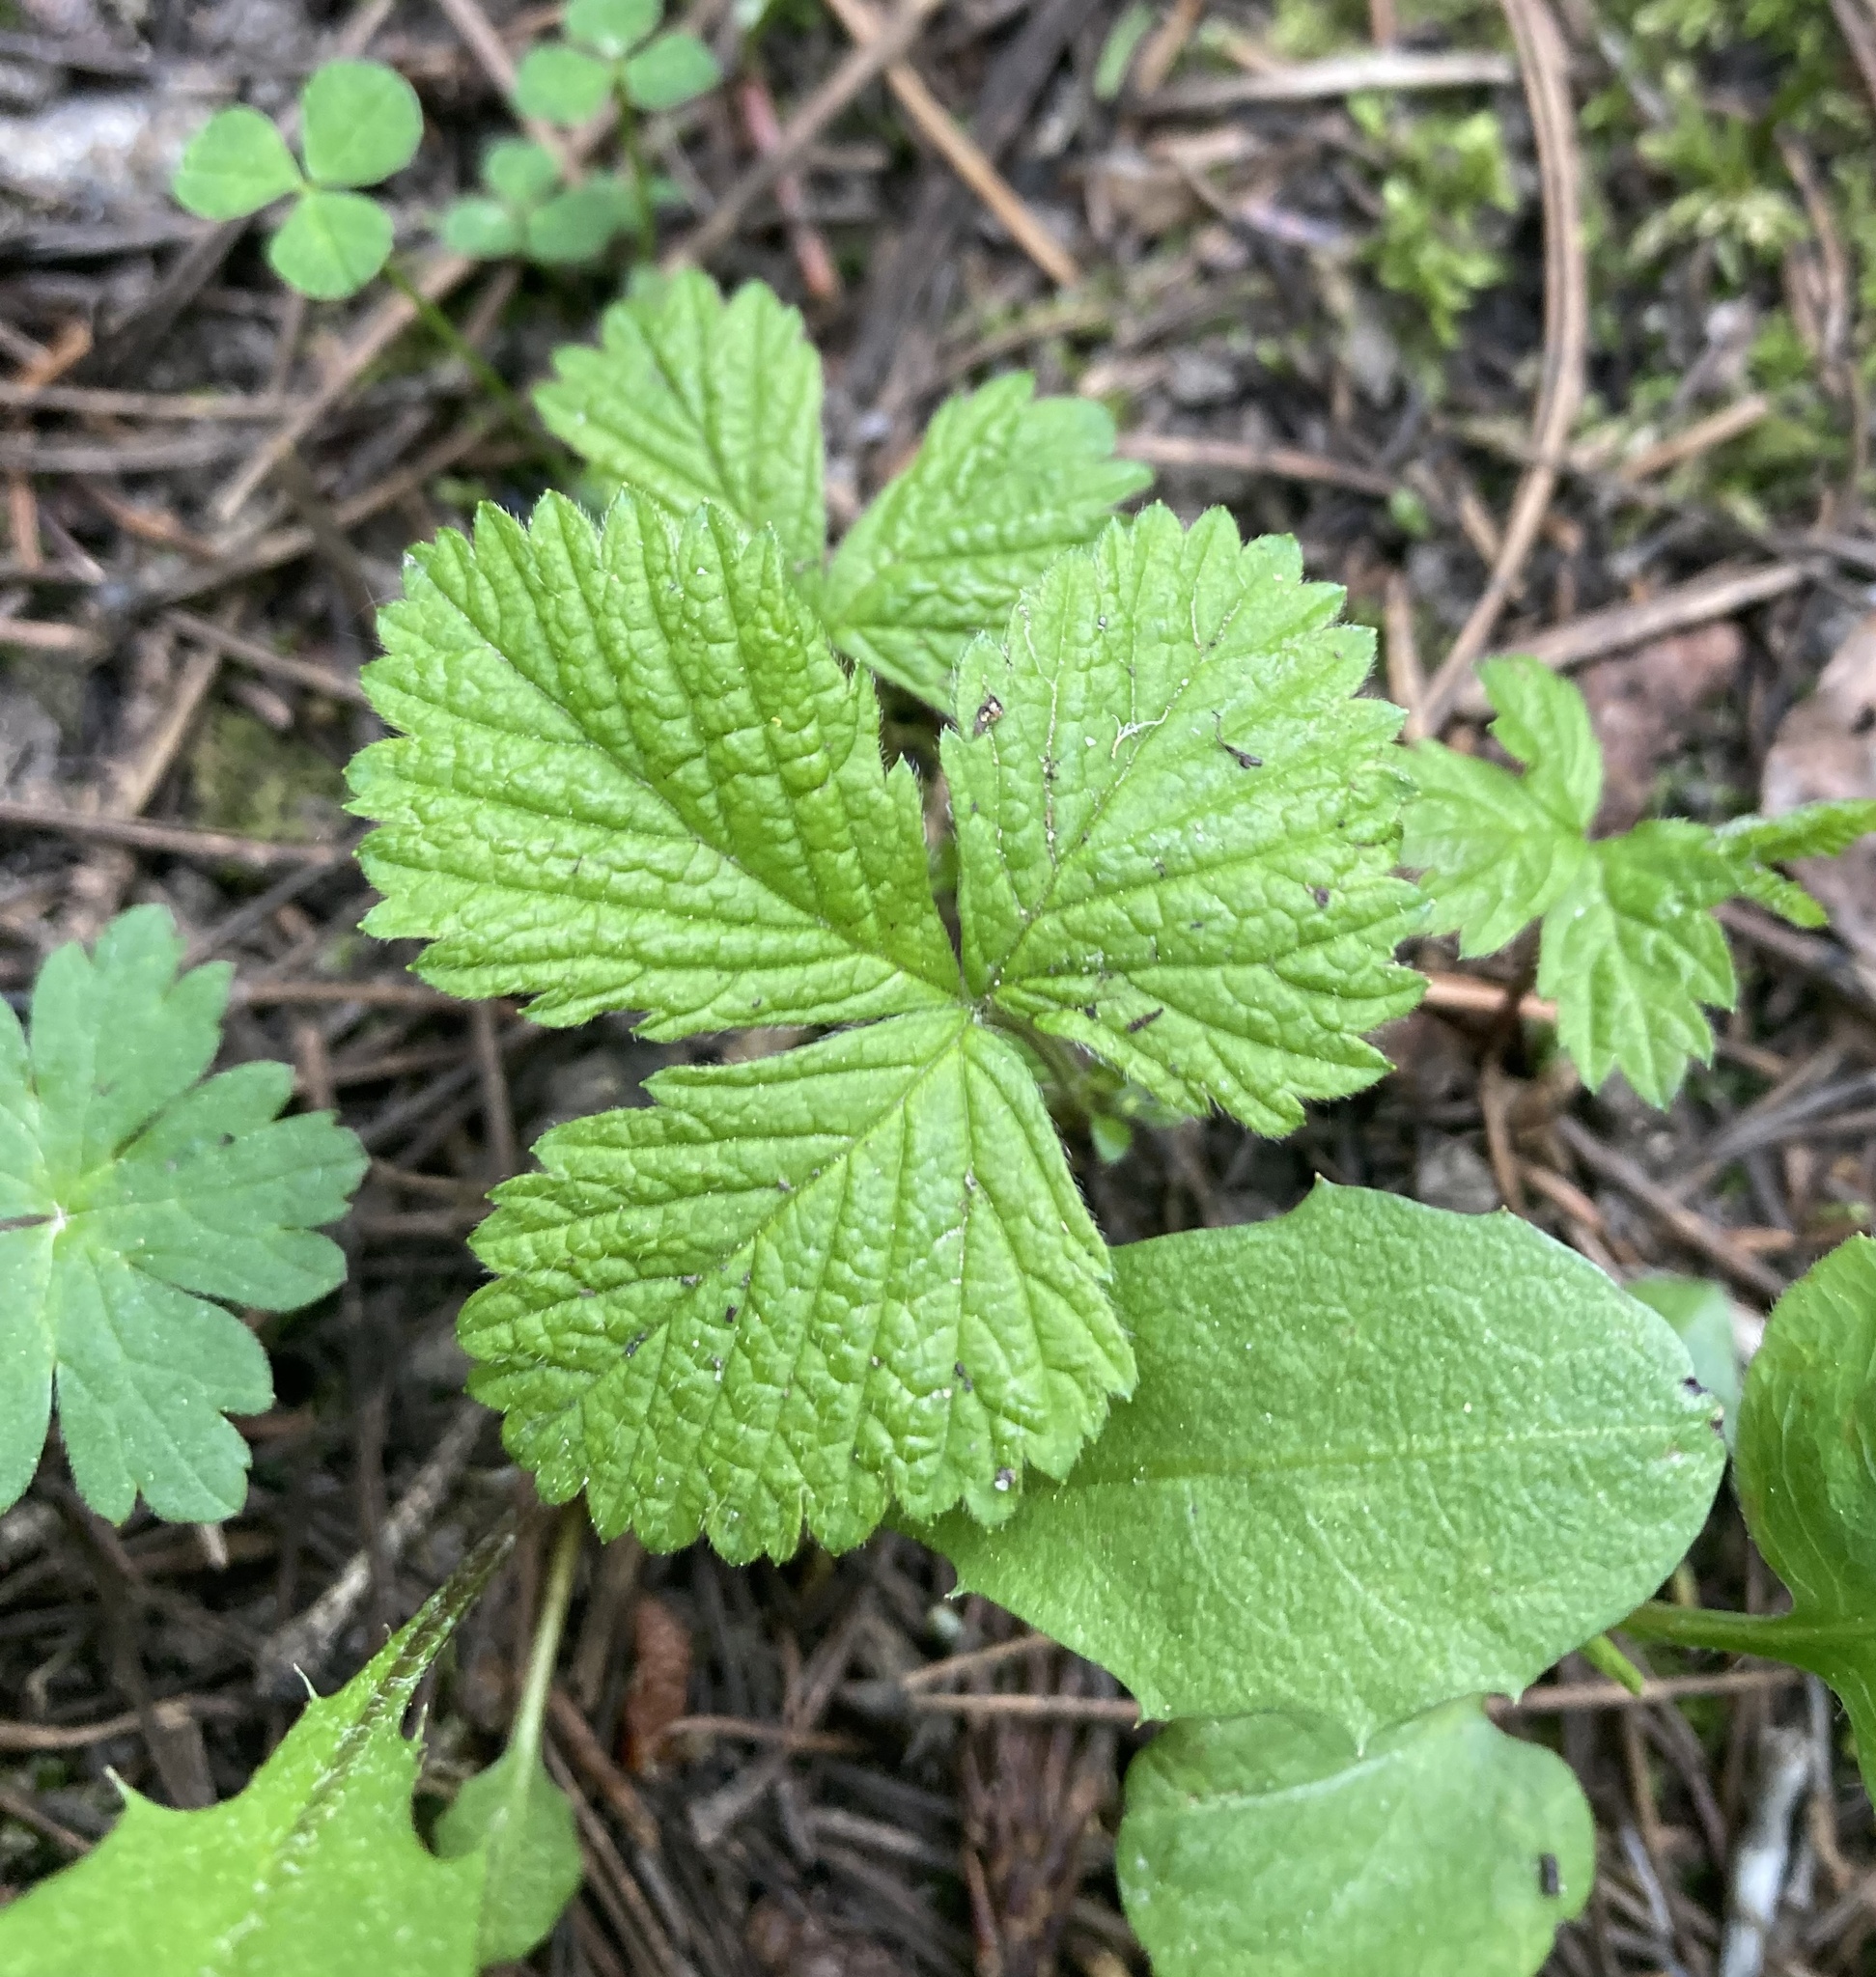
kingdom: Plantae
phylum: Tracheophyta
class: Magnoliopsida
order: Rosales
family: Rosaceae
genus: Rubus
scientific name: Rubus pubescens
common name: Dwarf raspberry
